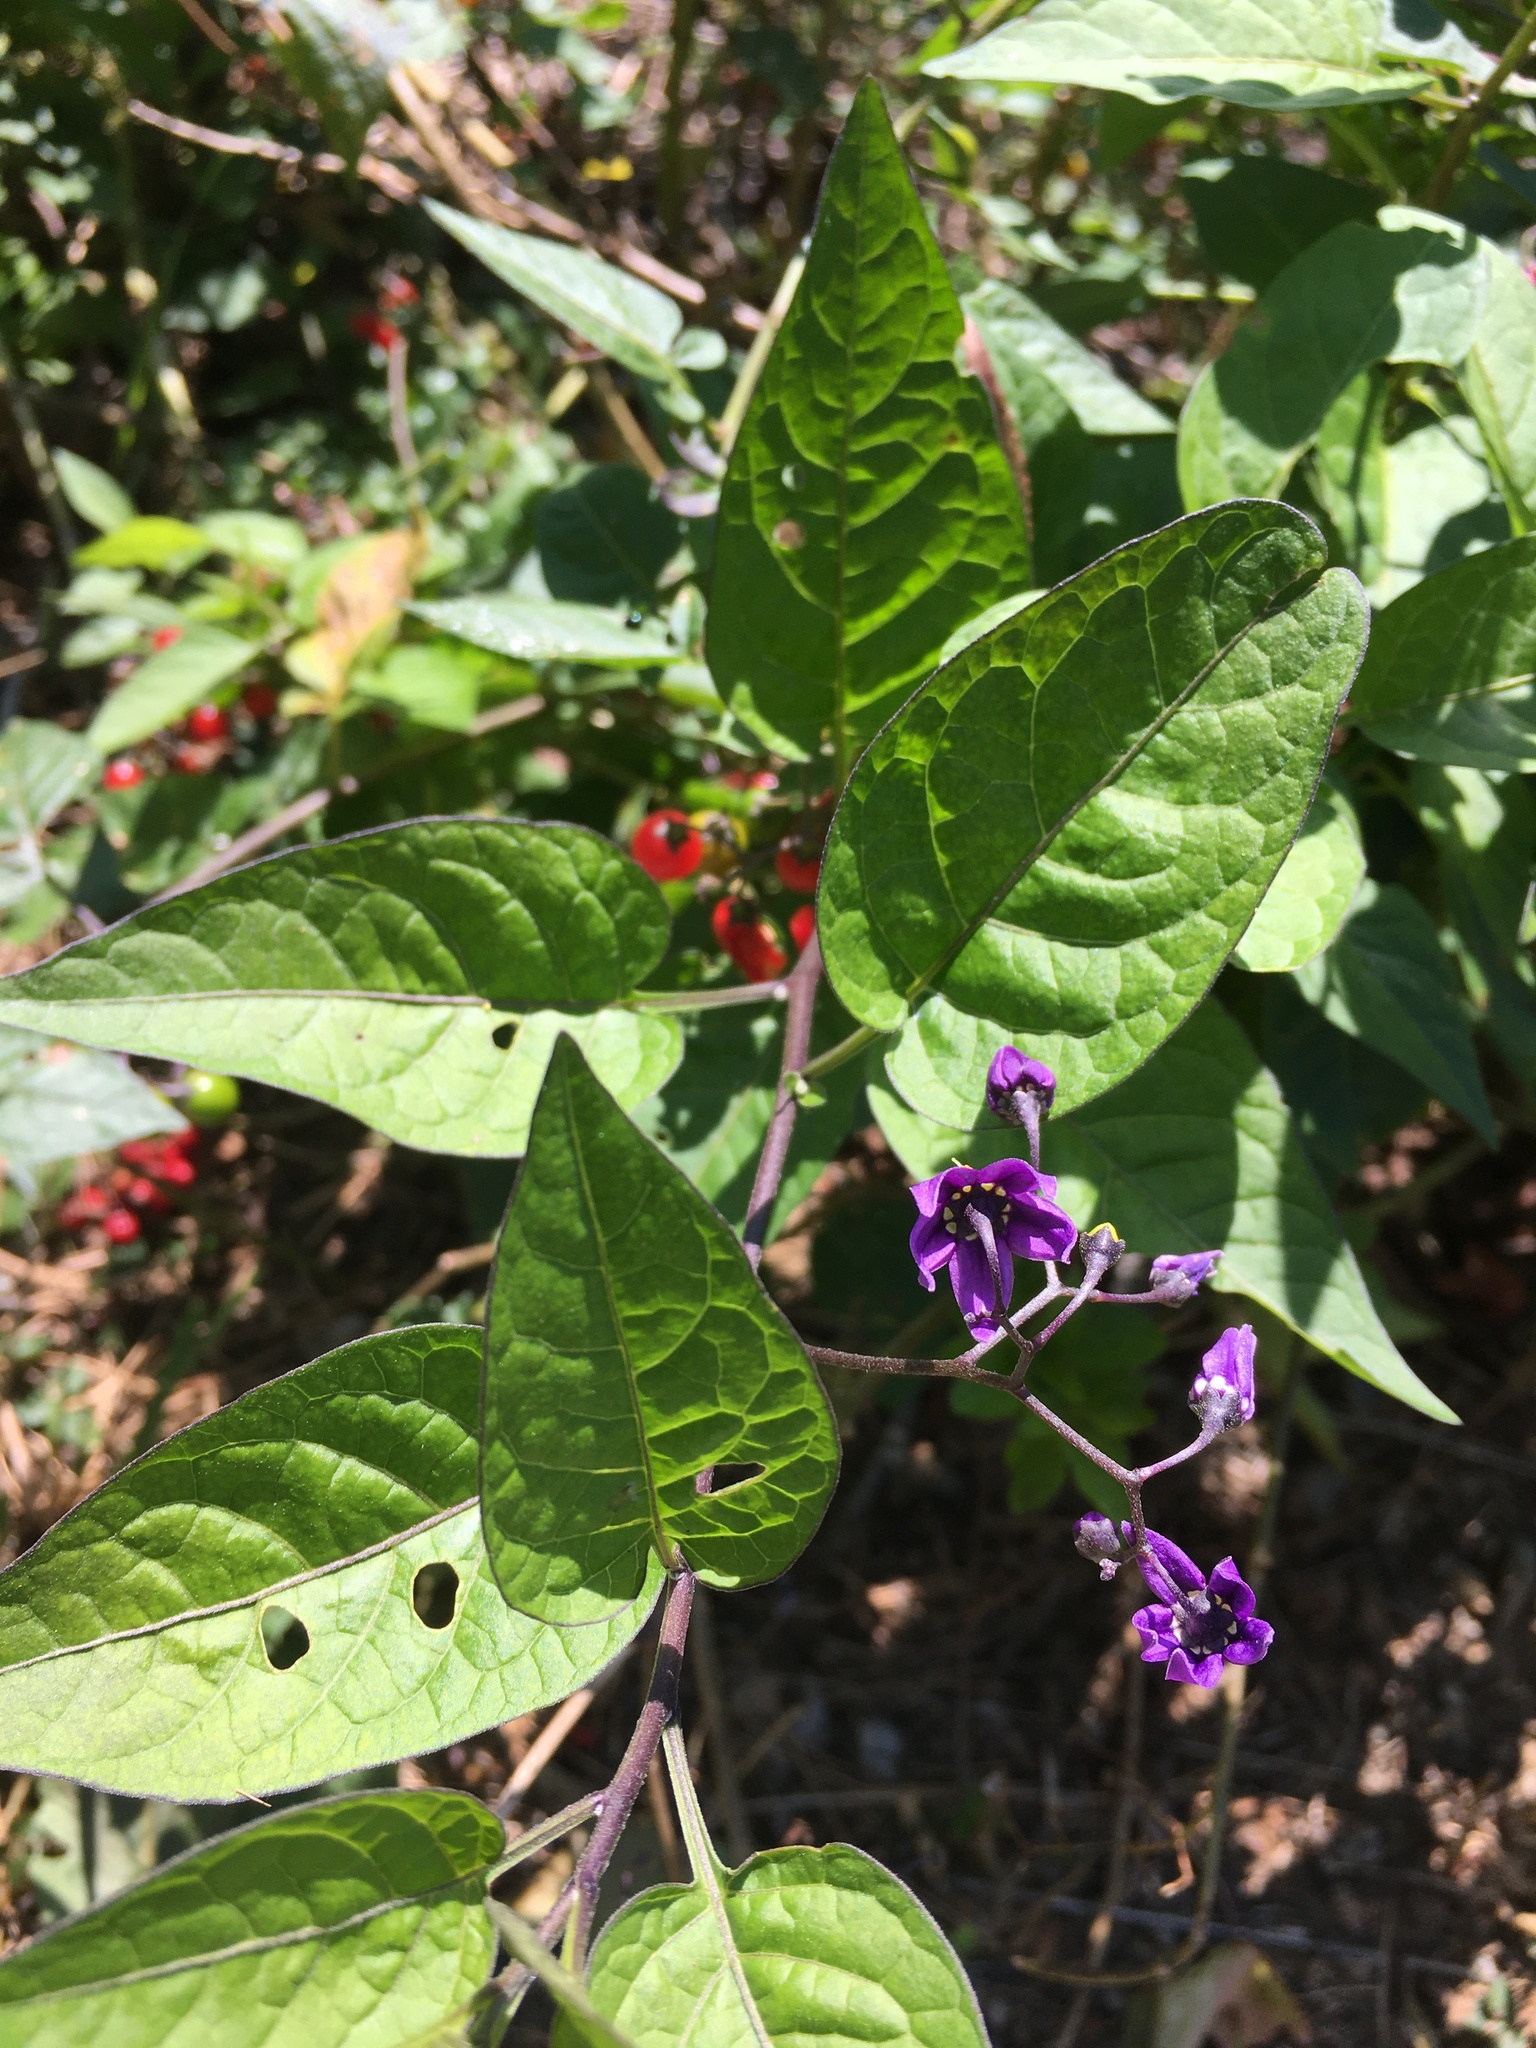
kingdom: Plantae
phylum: Tracheophyta
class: Magnoliopsida
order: Solanales
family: Solanaceae
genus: Solanum
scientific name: Solanum dulcamara
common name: Climbing nightshade
